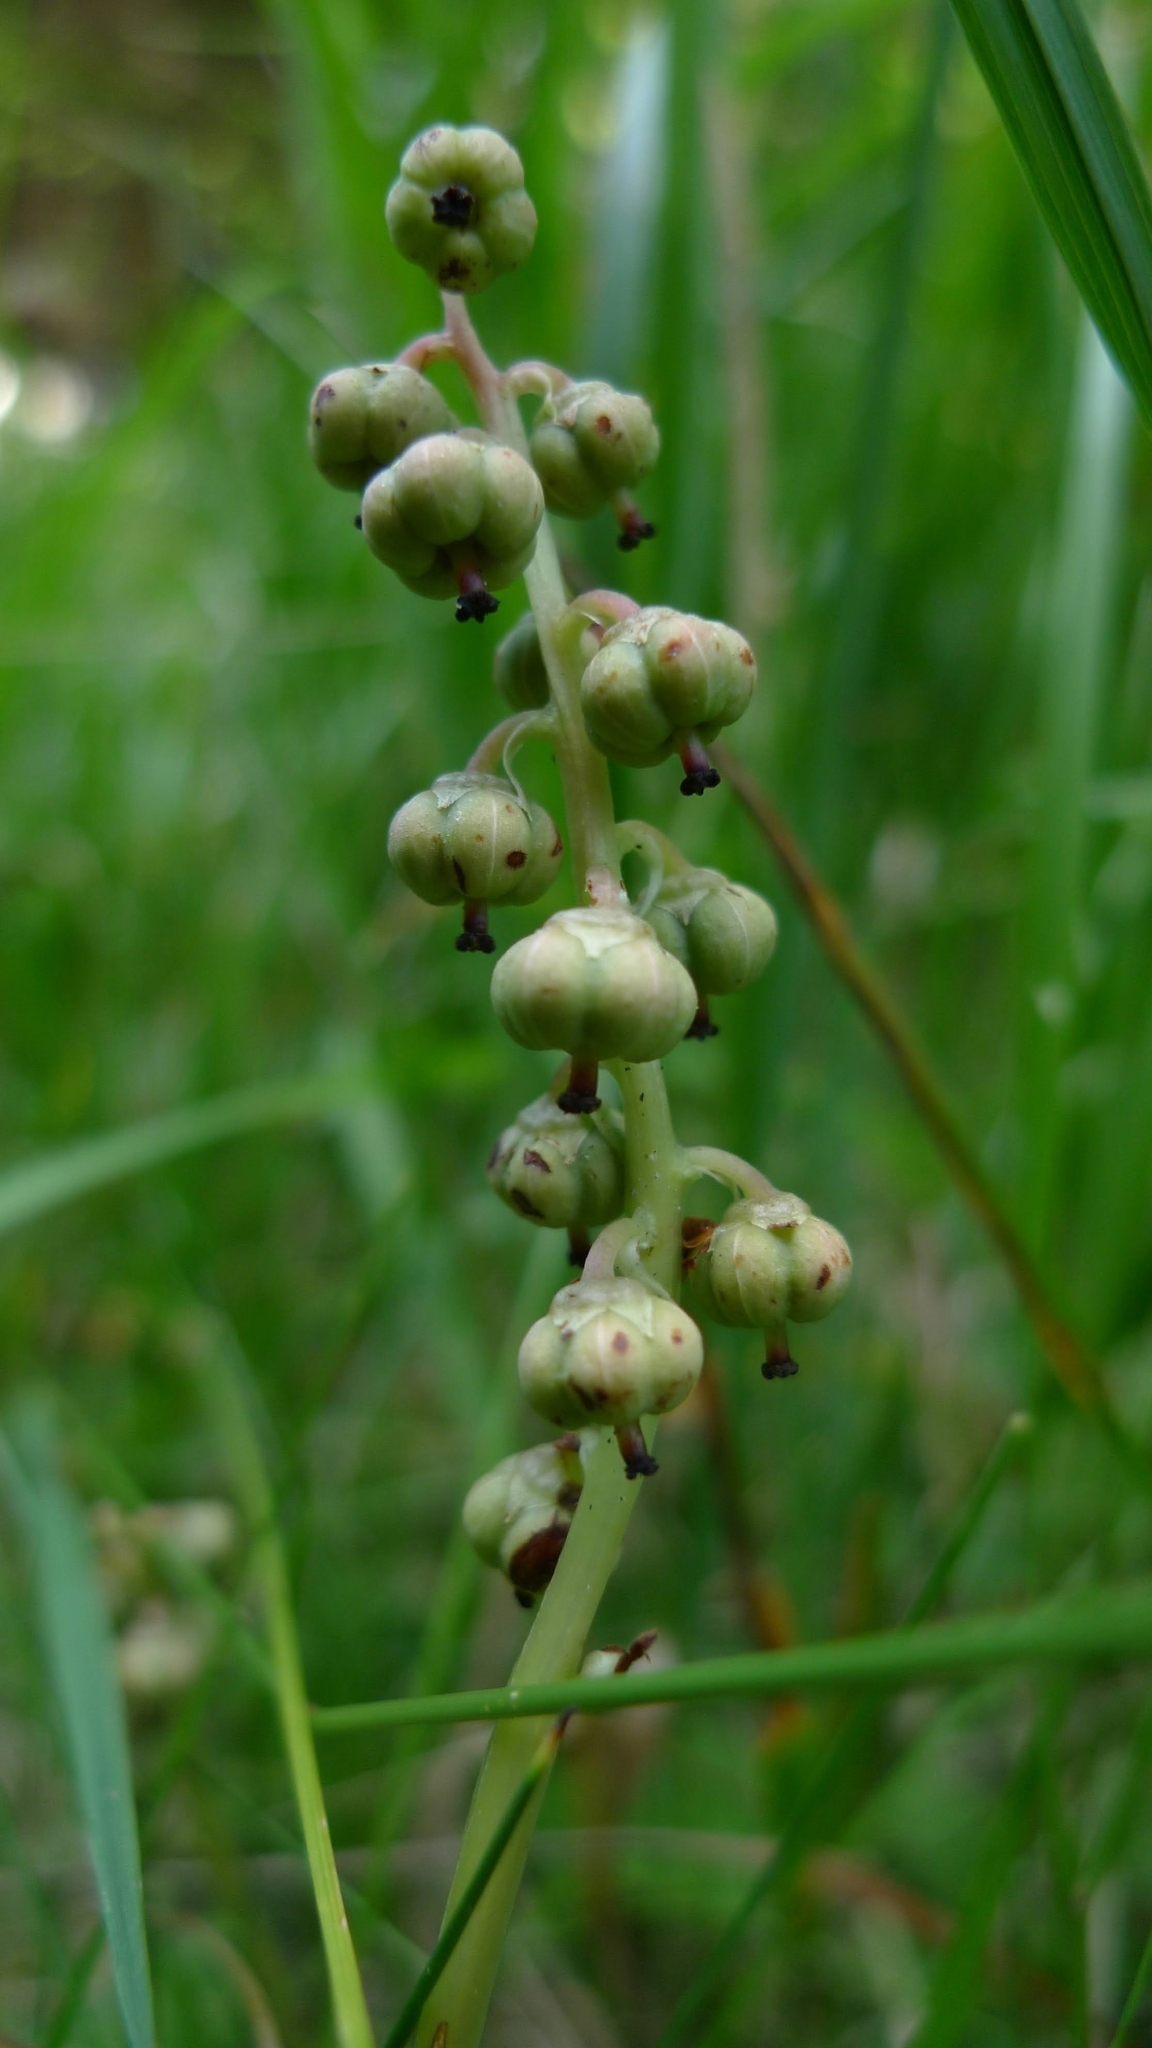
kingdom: Plantae
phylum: Tracheophyta
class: Magnoliopsida
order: Ericales
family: Ericaceae
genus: Pyrola
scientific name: Pyrola minor
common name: Common wintergreen
